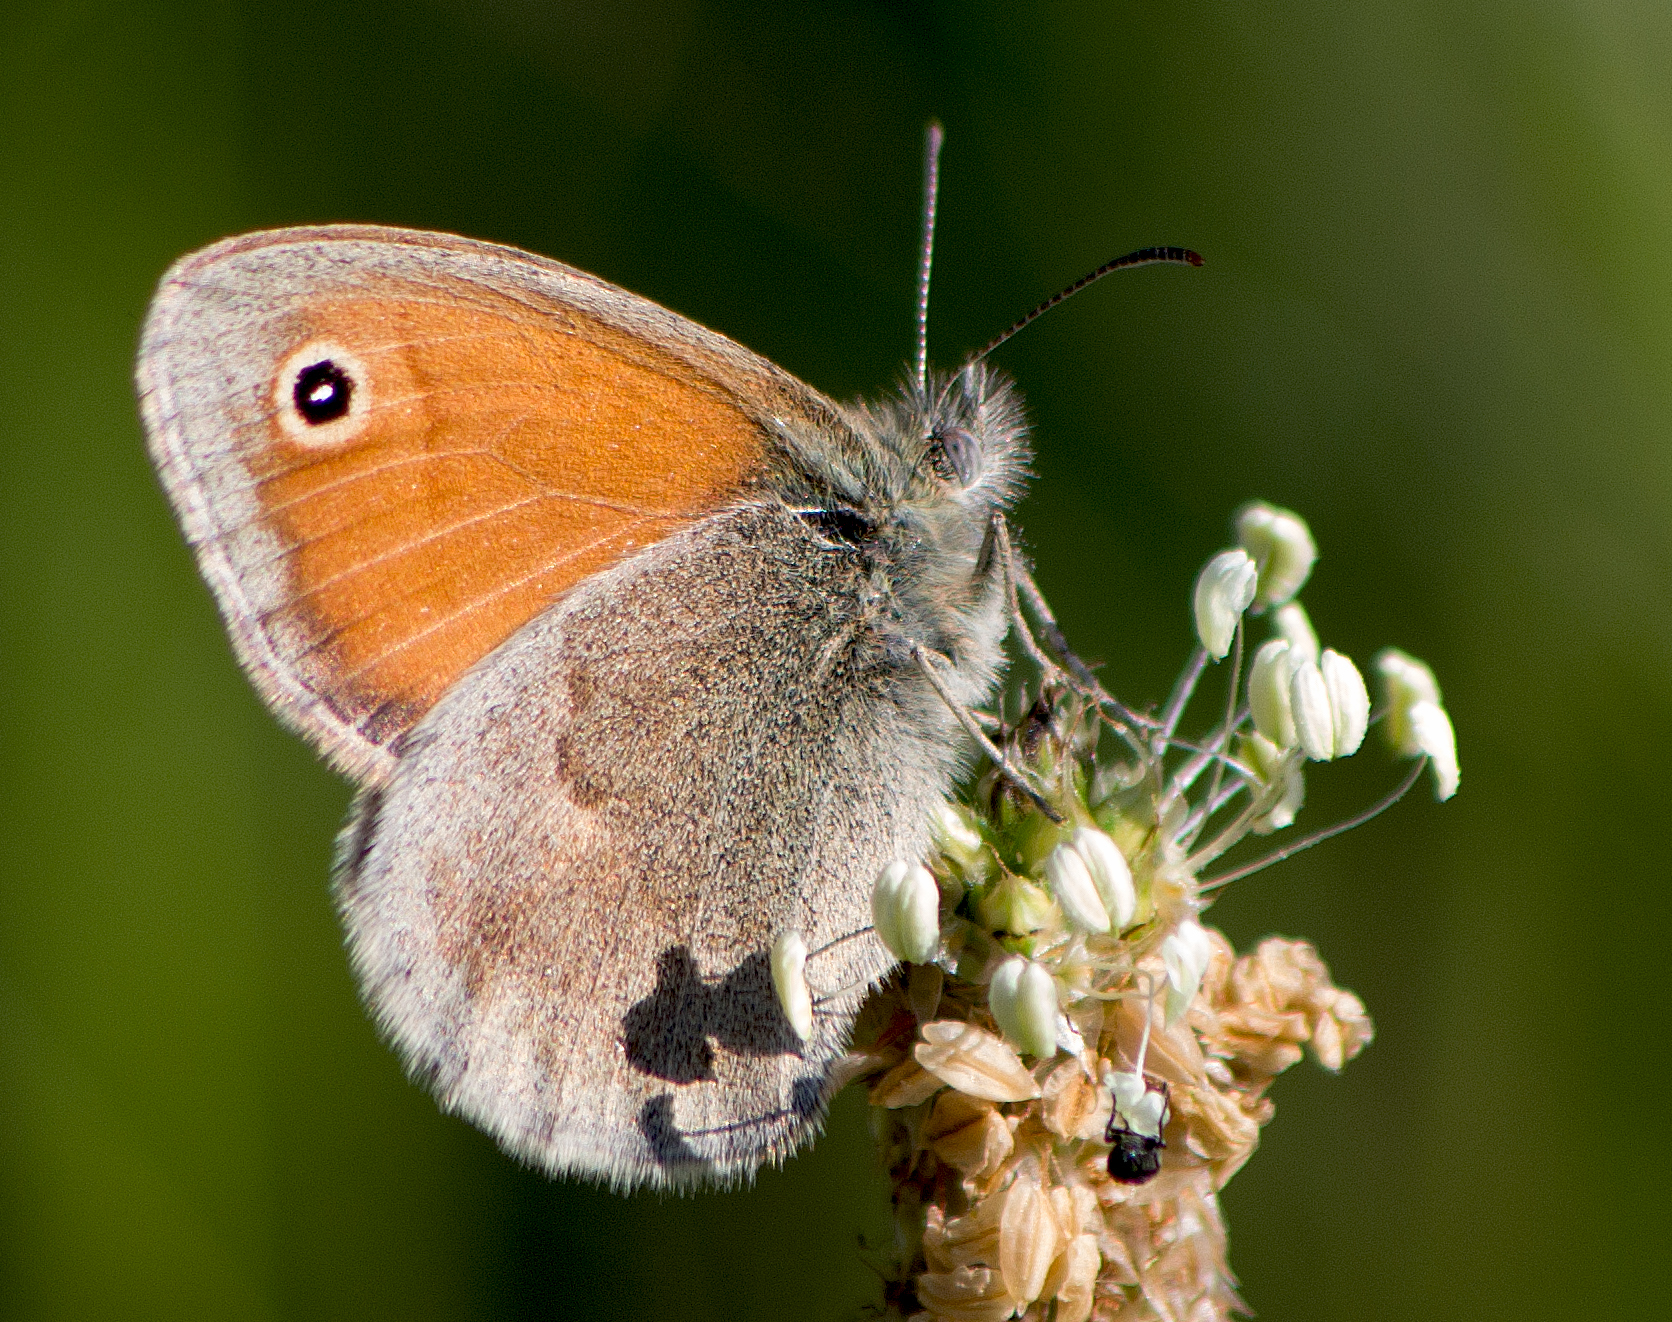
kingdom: Animalia
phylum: Arthropoda
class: Insecta
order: Lepidoptera
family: Nymphalidae
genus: Coenonympha
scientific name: Coenonympha pamphilus
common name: Small heath
